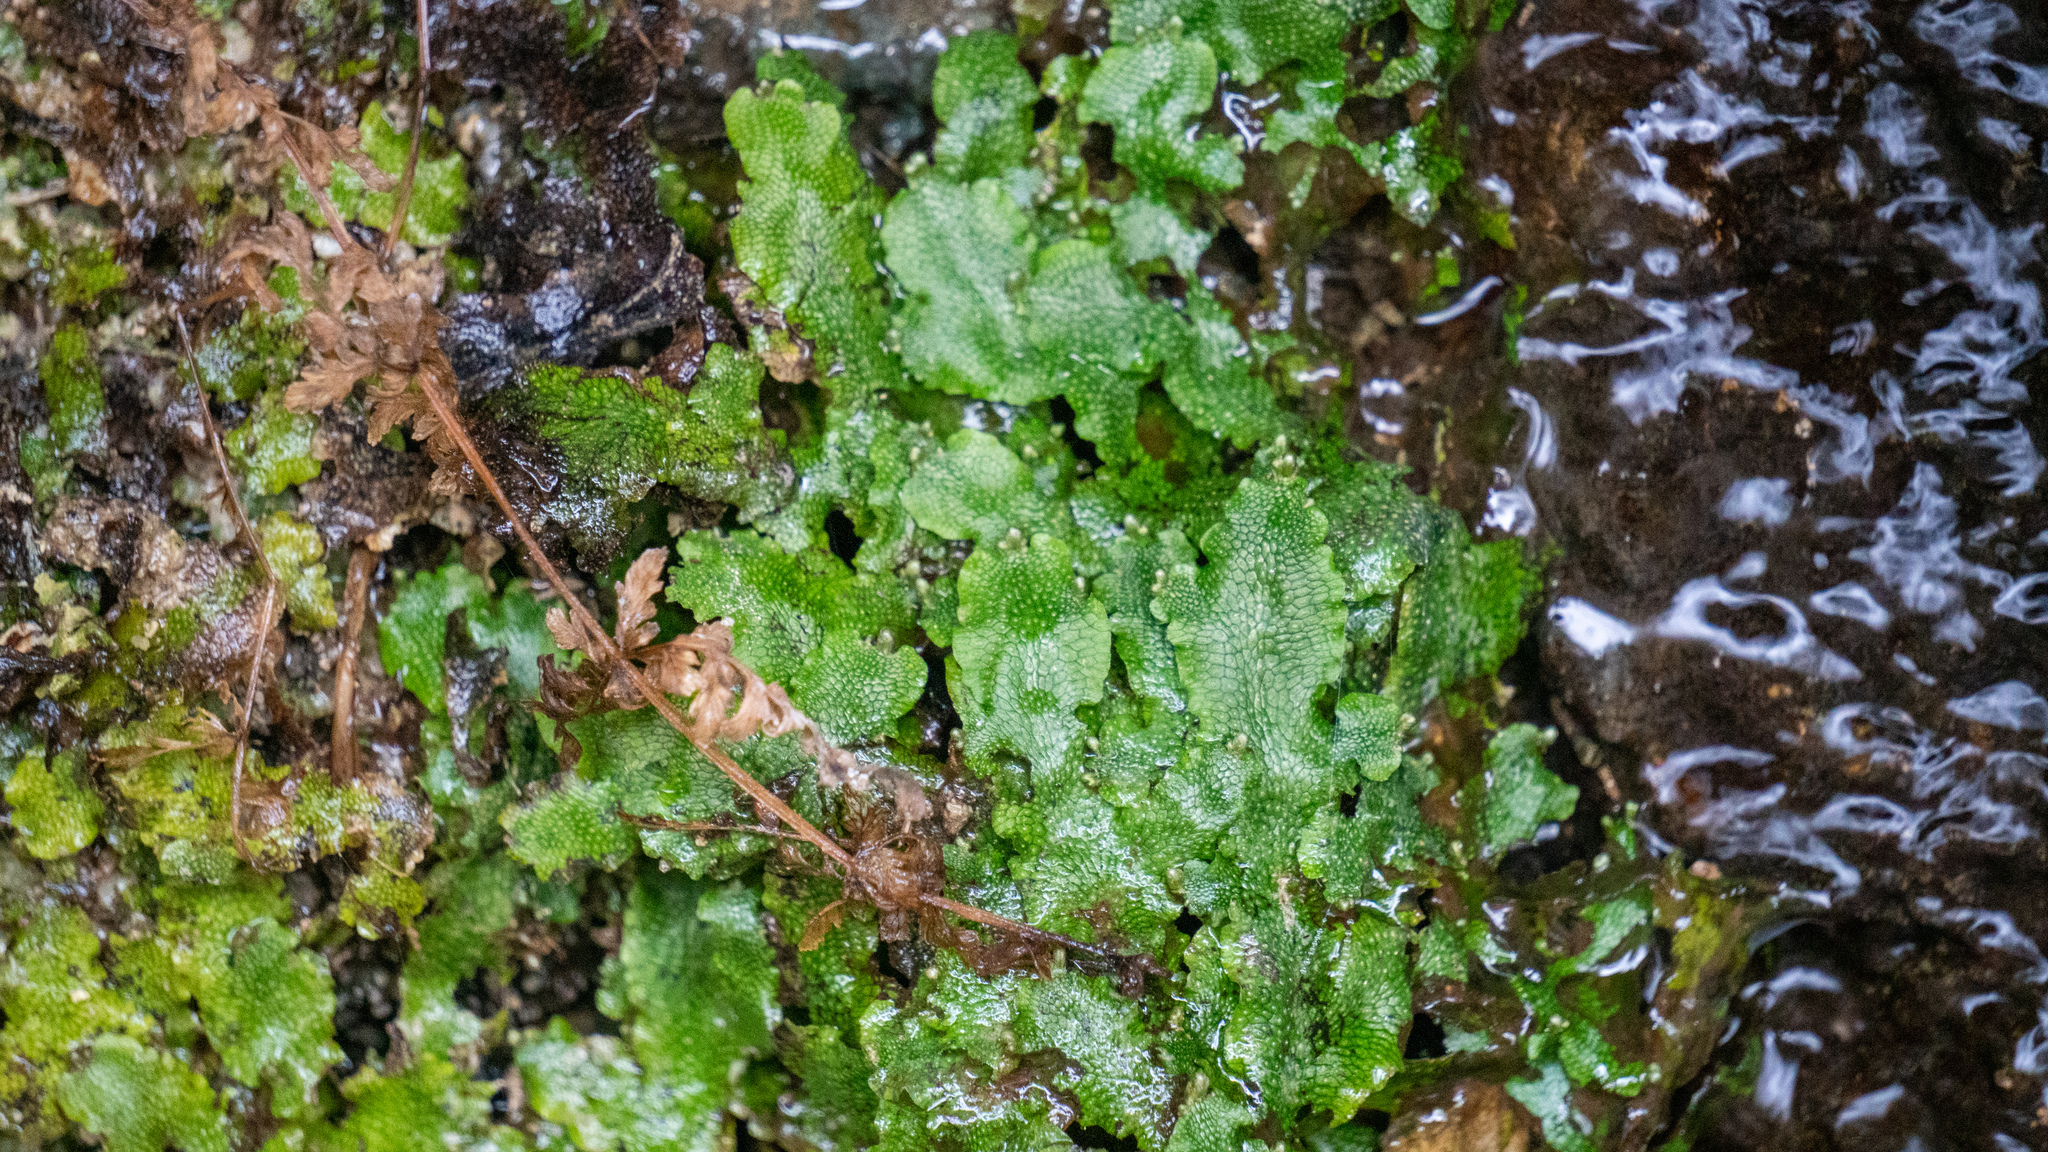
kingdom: Plantae
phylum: Marchantiophyta
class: Marchantiopsida
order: Marchantiales
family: Conocephalaceae
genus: Conocephalum
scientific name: Conocephalum salebrosum
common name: Cat-tongue liverwort
